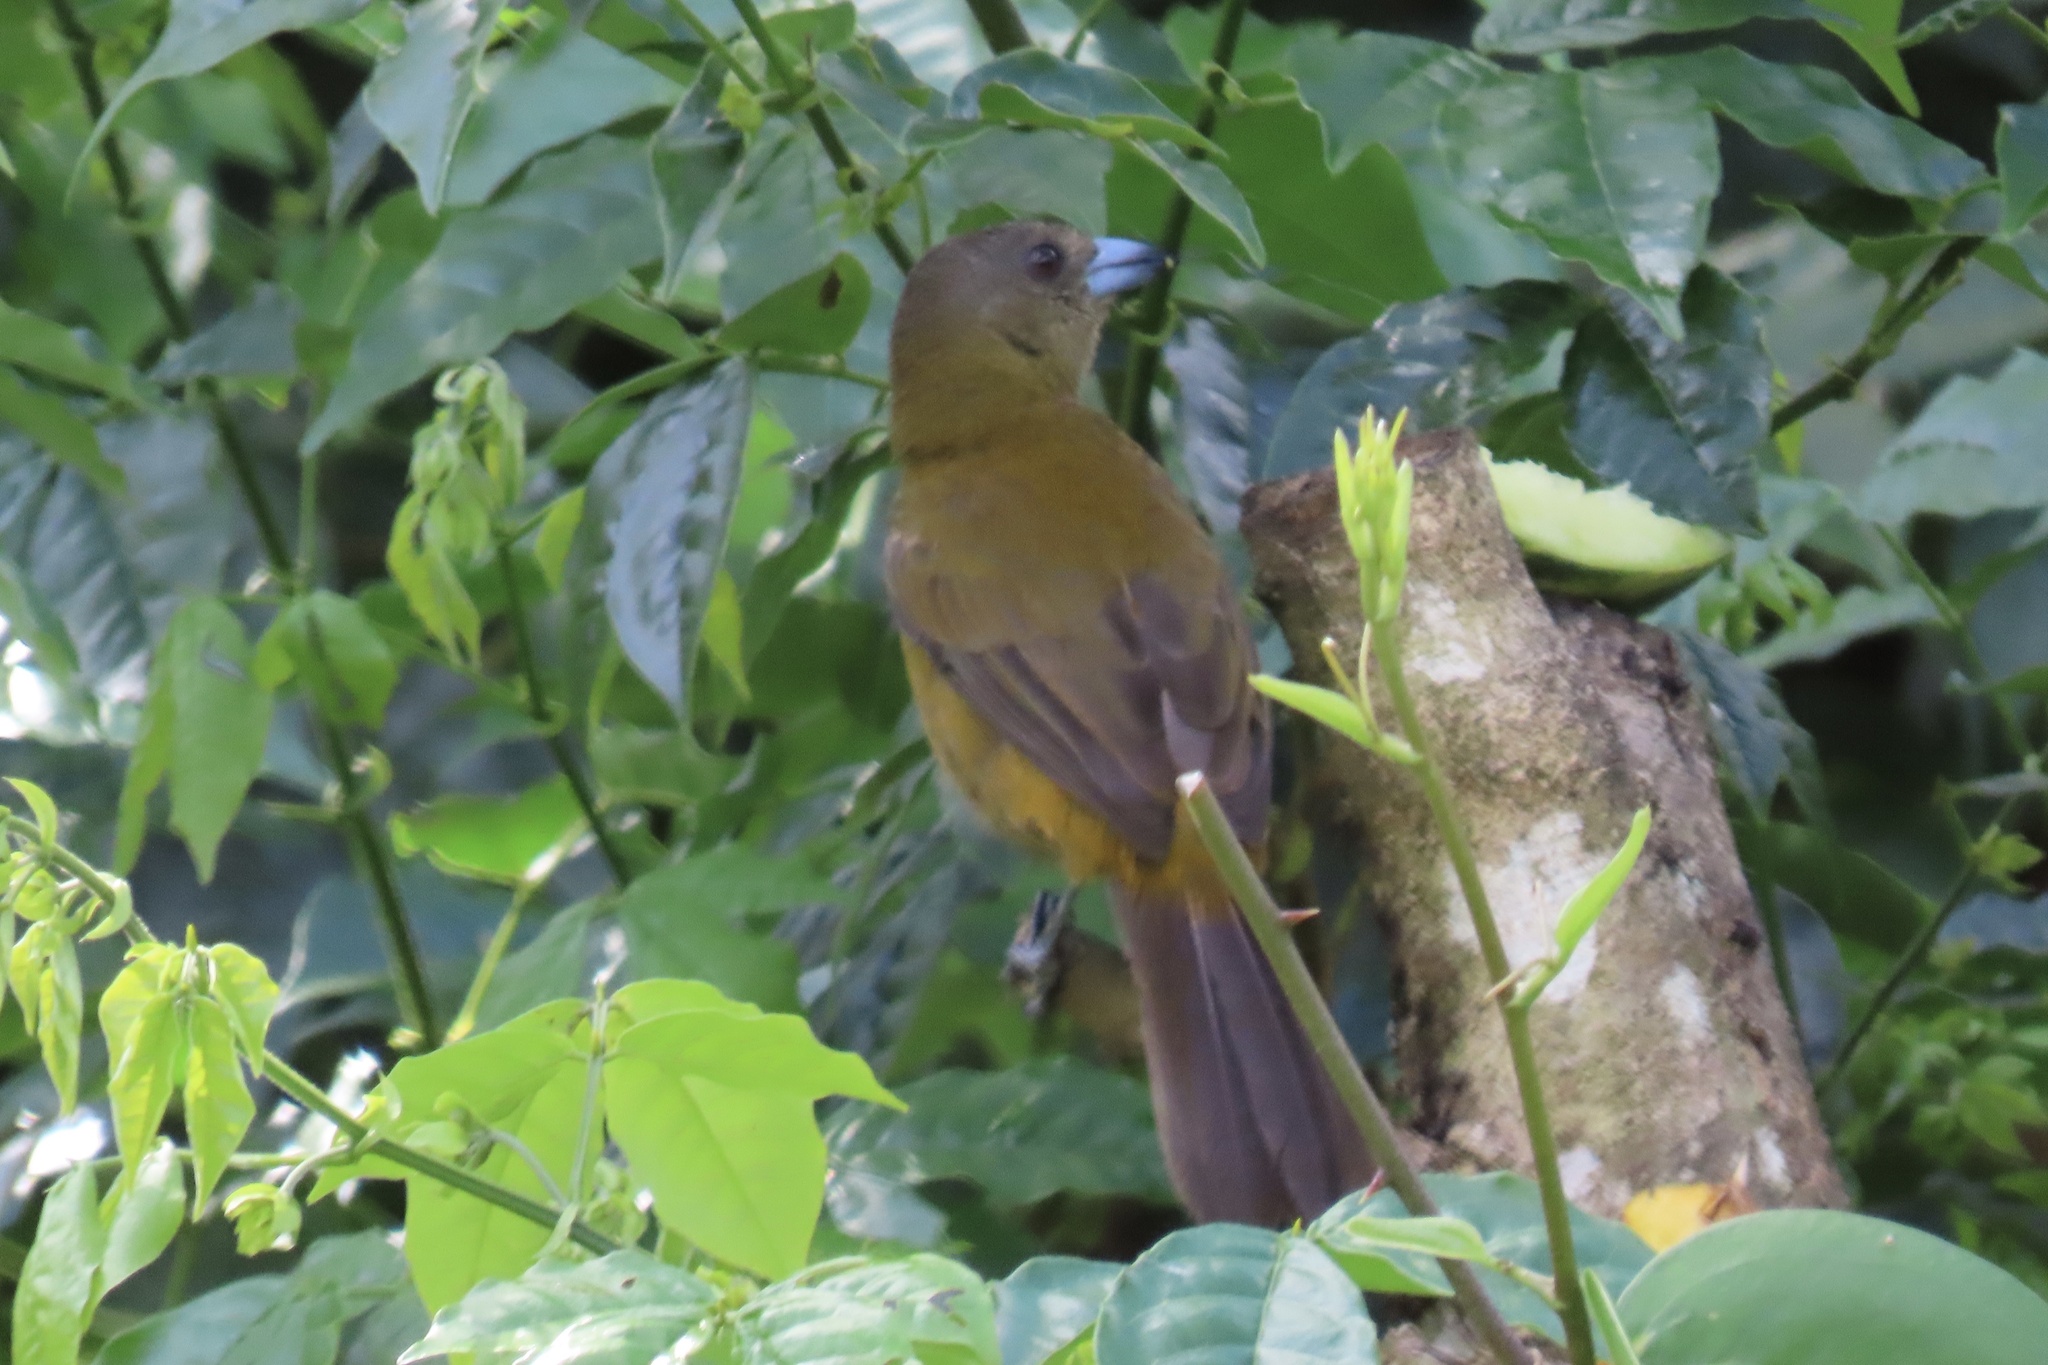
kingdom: Animalia
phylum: Chordata
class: Aves
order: Passeriformes
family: Thraupidae
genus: Ramphocelus
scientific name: Ramphocelus passerinii
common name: Passerini's tanager
